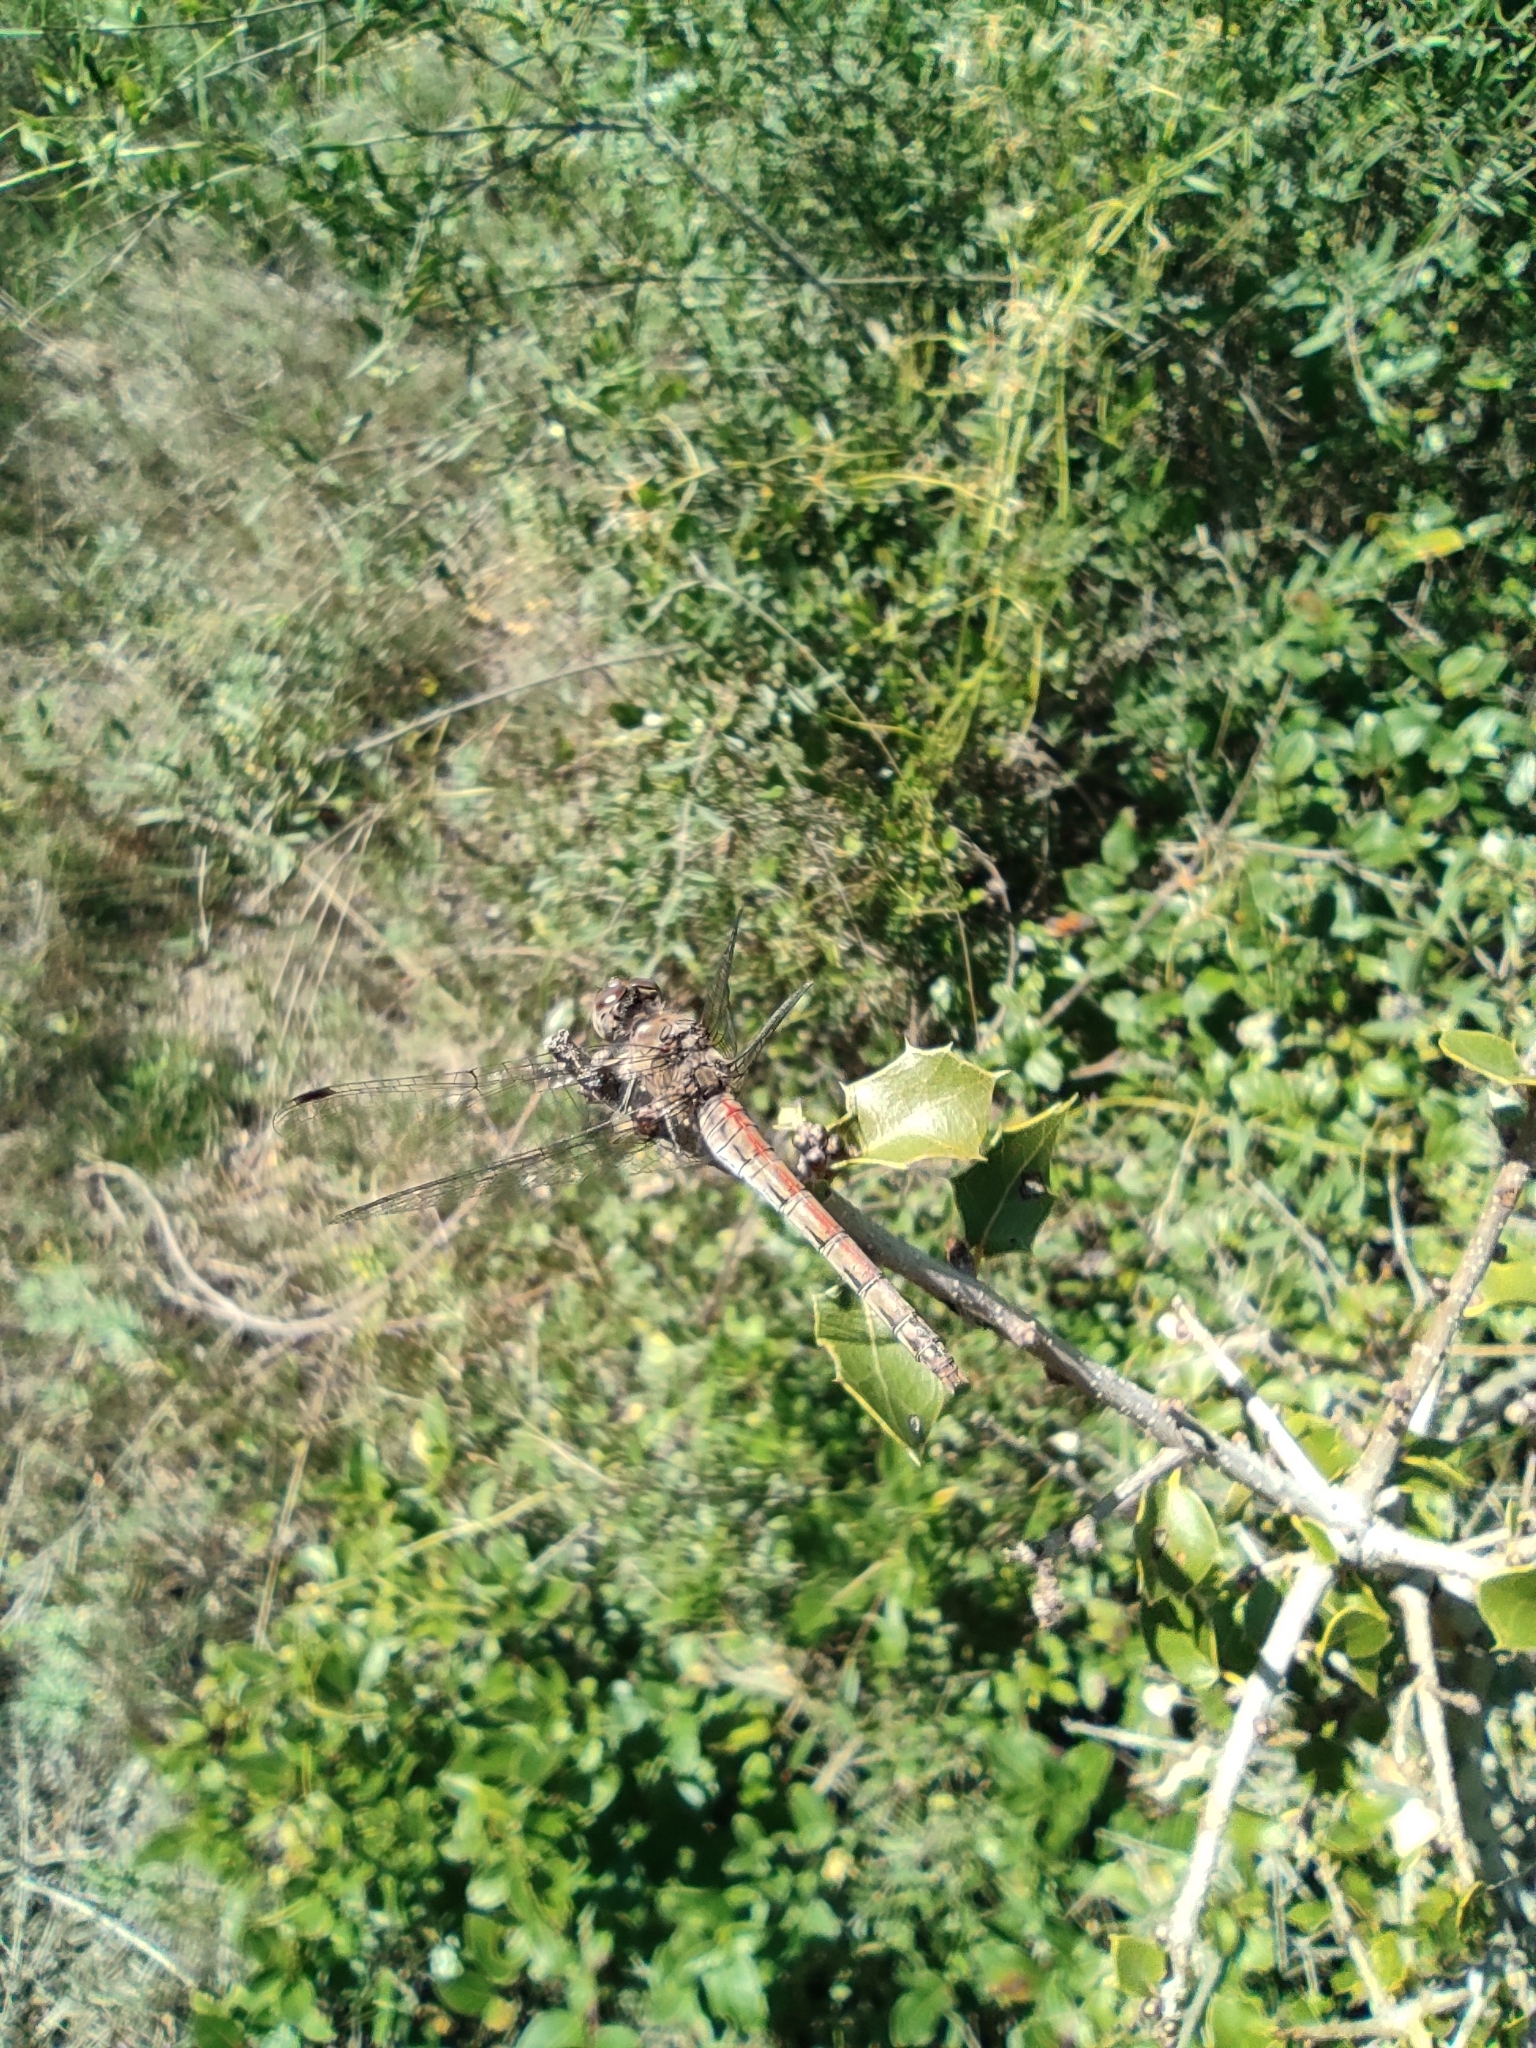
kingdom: Animalia
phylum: Arthropoda
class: Insecta
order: Odonata
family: Libellulidae
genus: Sympetrum
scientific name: Sympetrum striolatum
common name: Common darter
